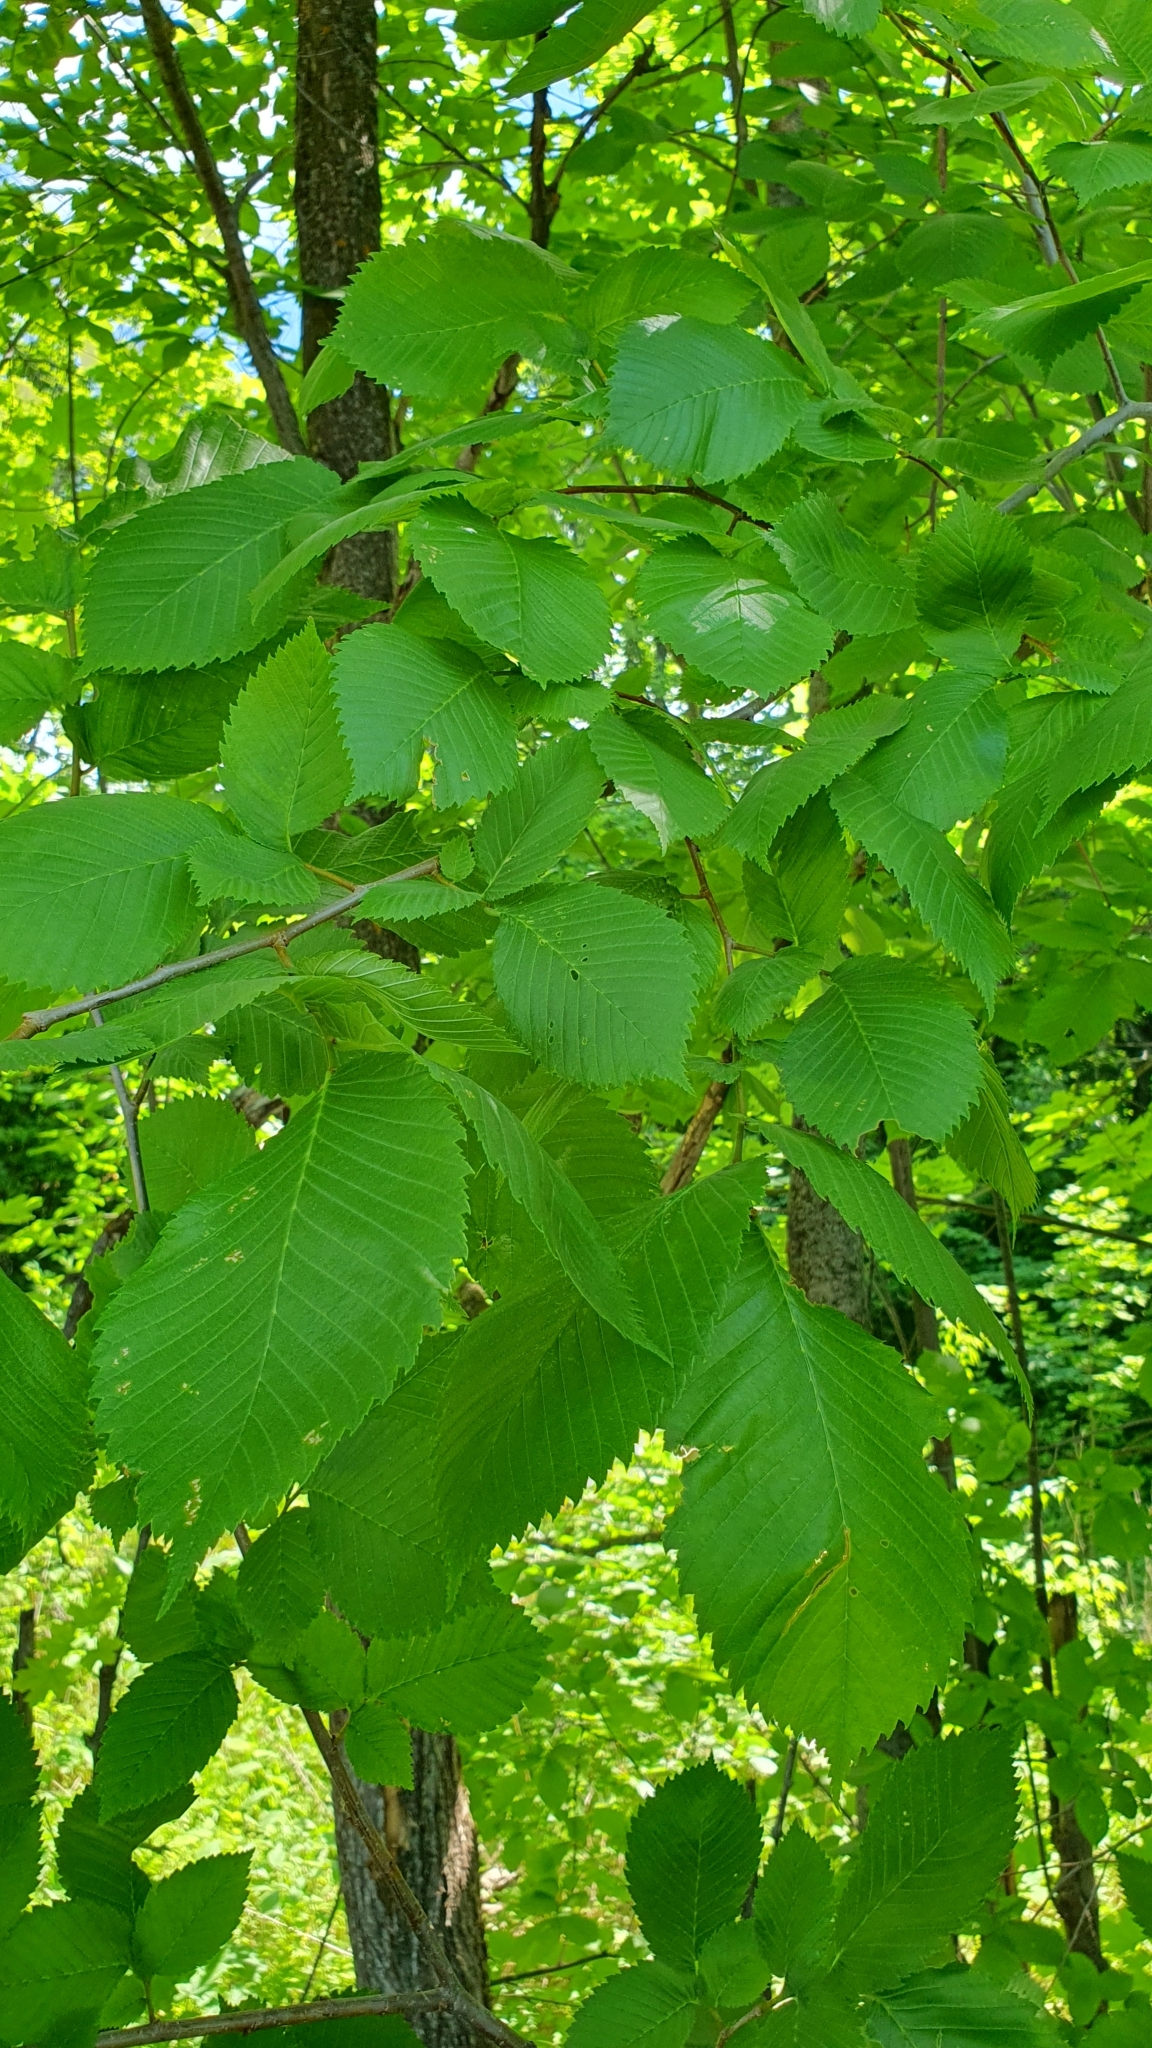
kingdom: Plantae
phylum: Tracheophyta
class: Magnoliopsida
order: Rosales
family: Ulmaceae
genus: Ulmus
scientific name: Ulmus laevis
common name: European white-elm
